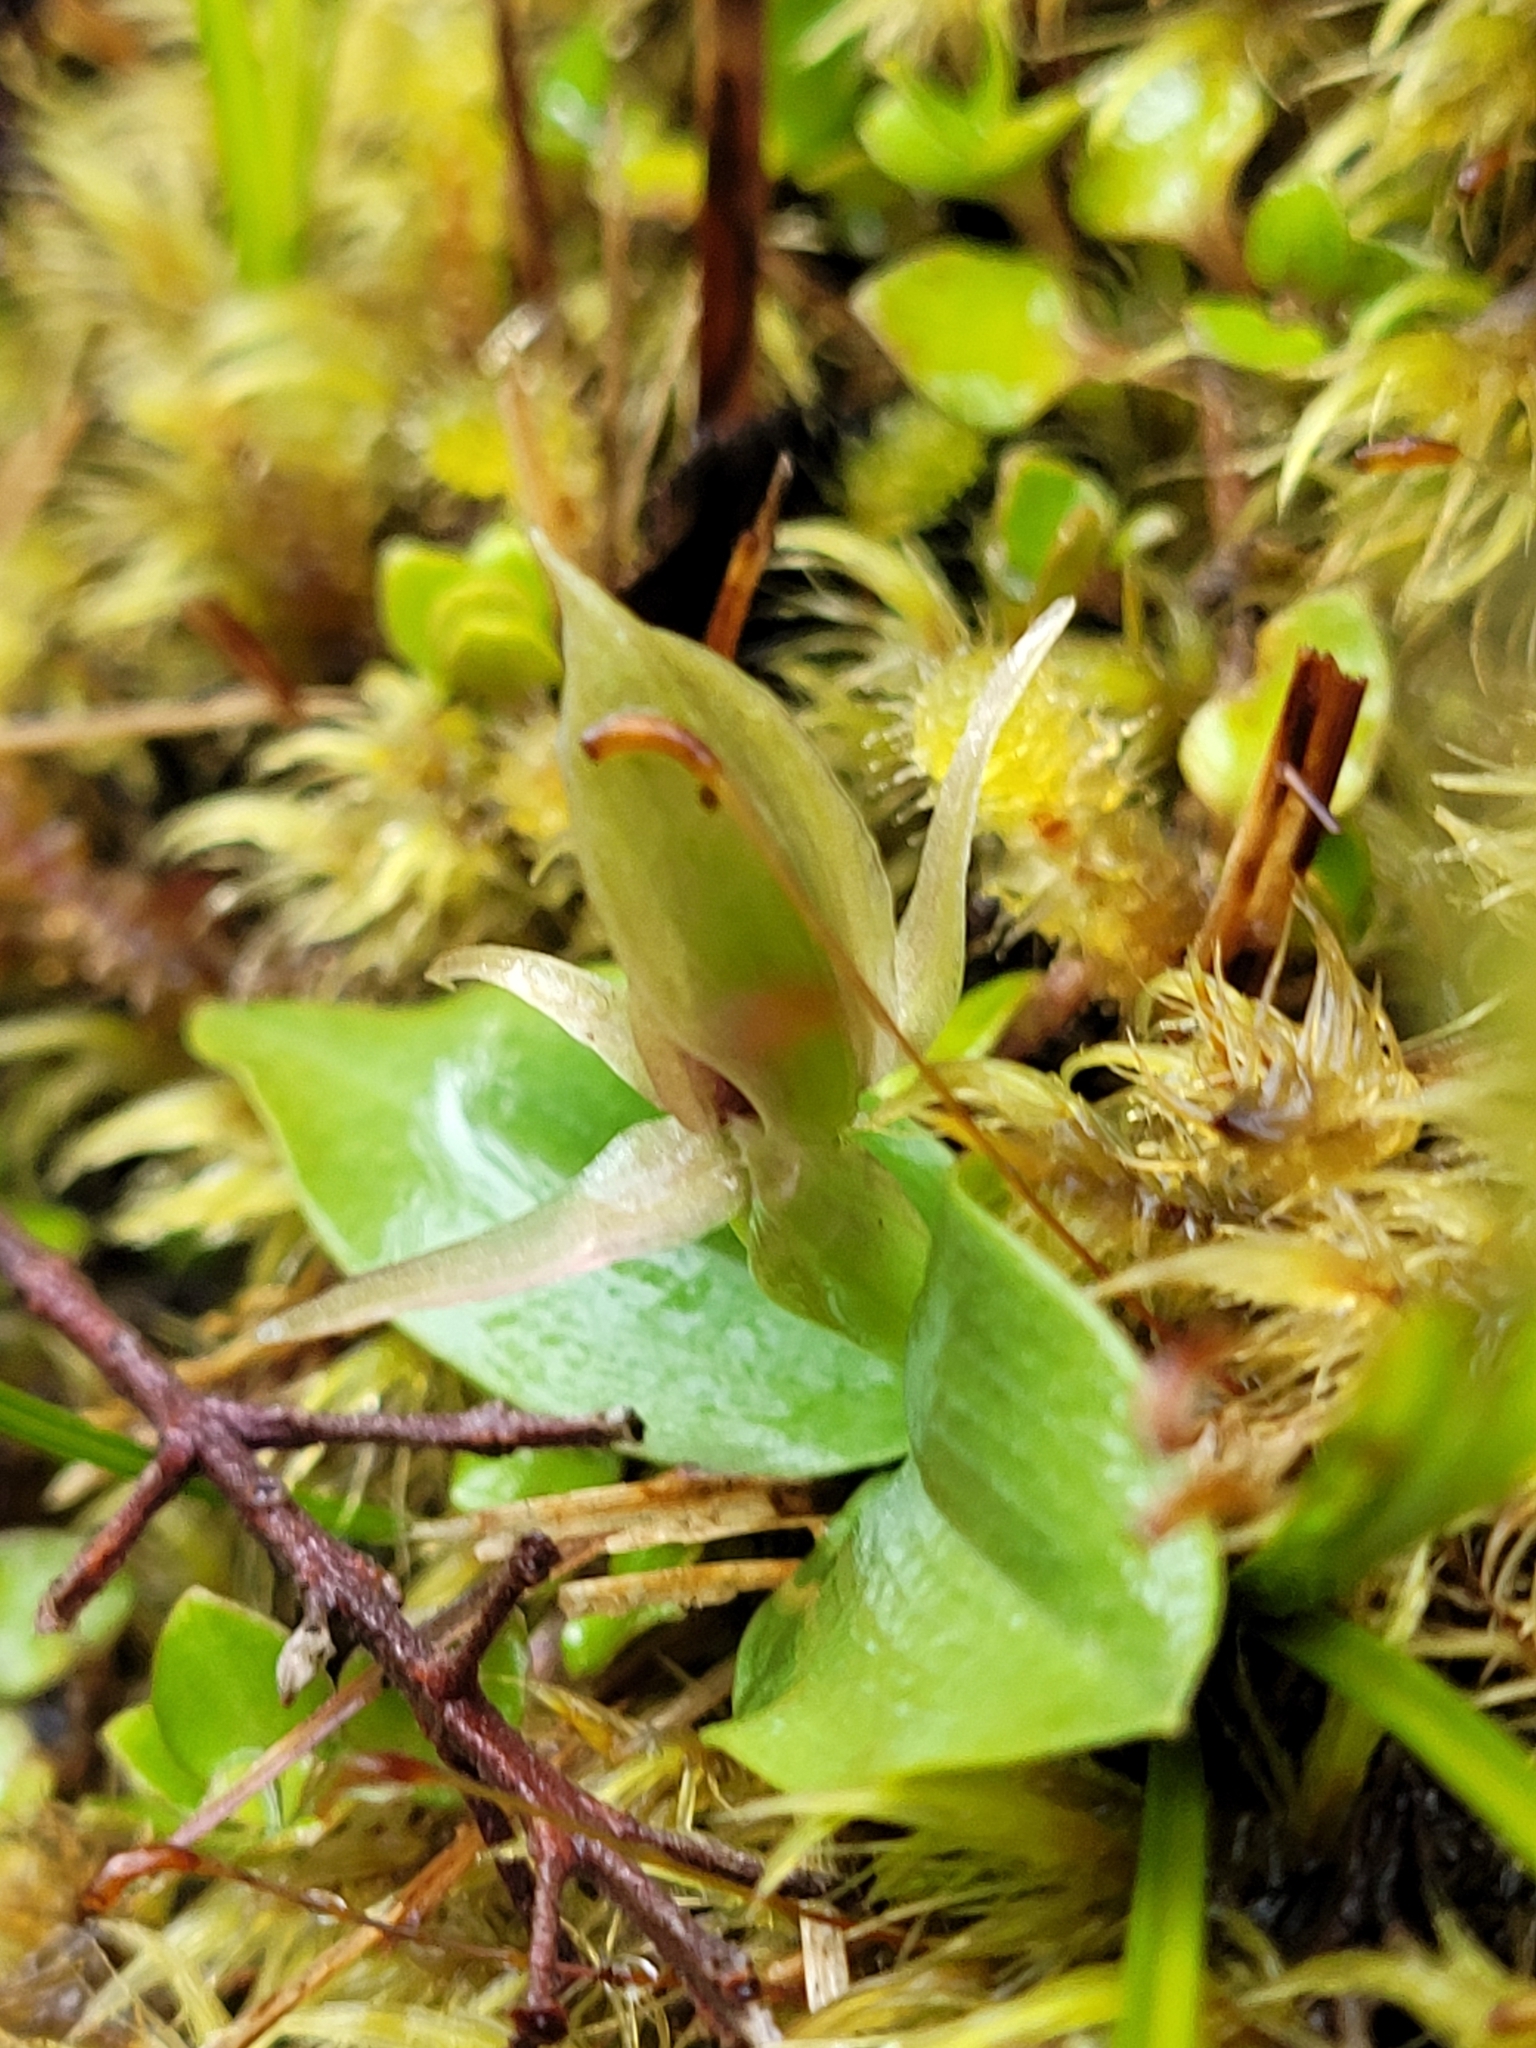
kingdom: Plantae
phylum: Tracheophyta
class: Liliopsida
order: Asparagales
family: Orchidaceae
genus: Chiloglottis
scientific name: Chiloglottis cornuta
